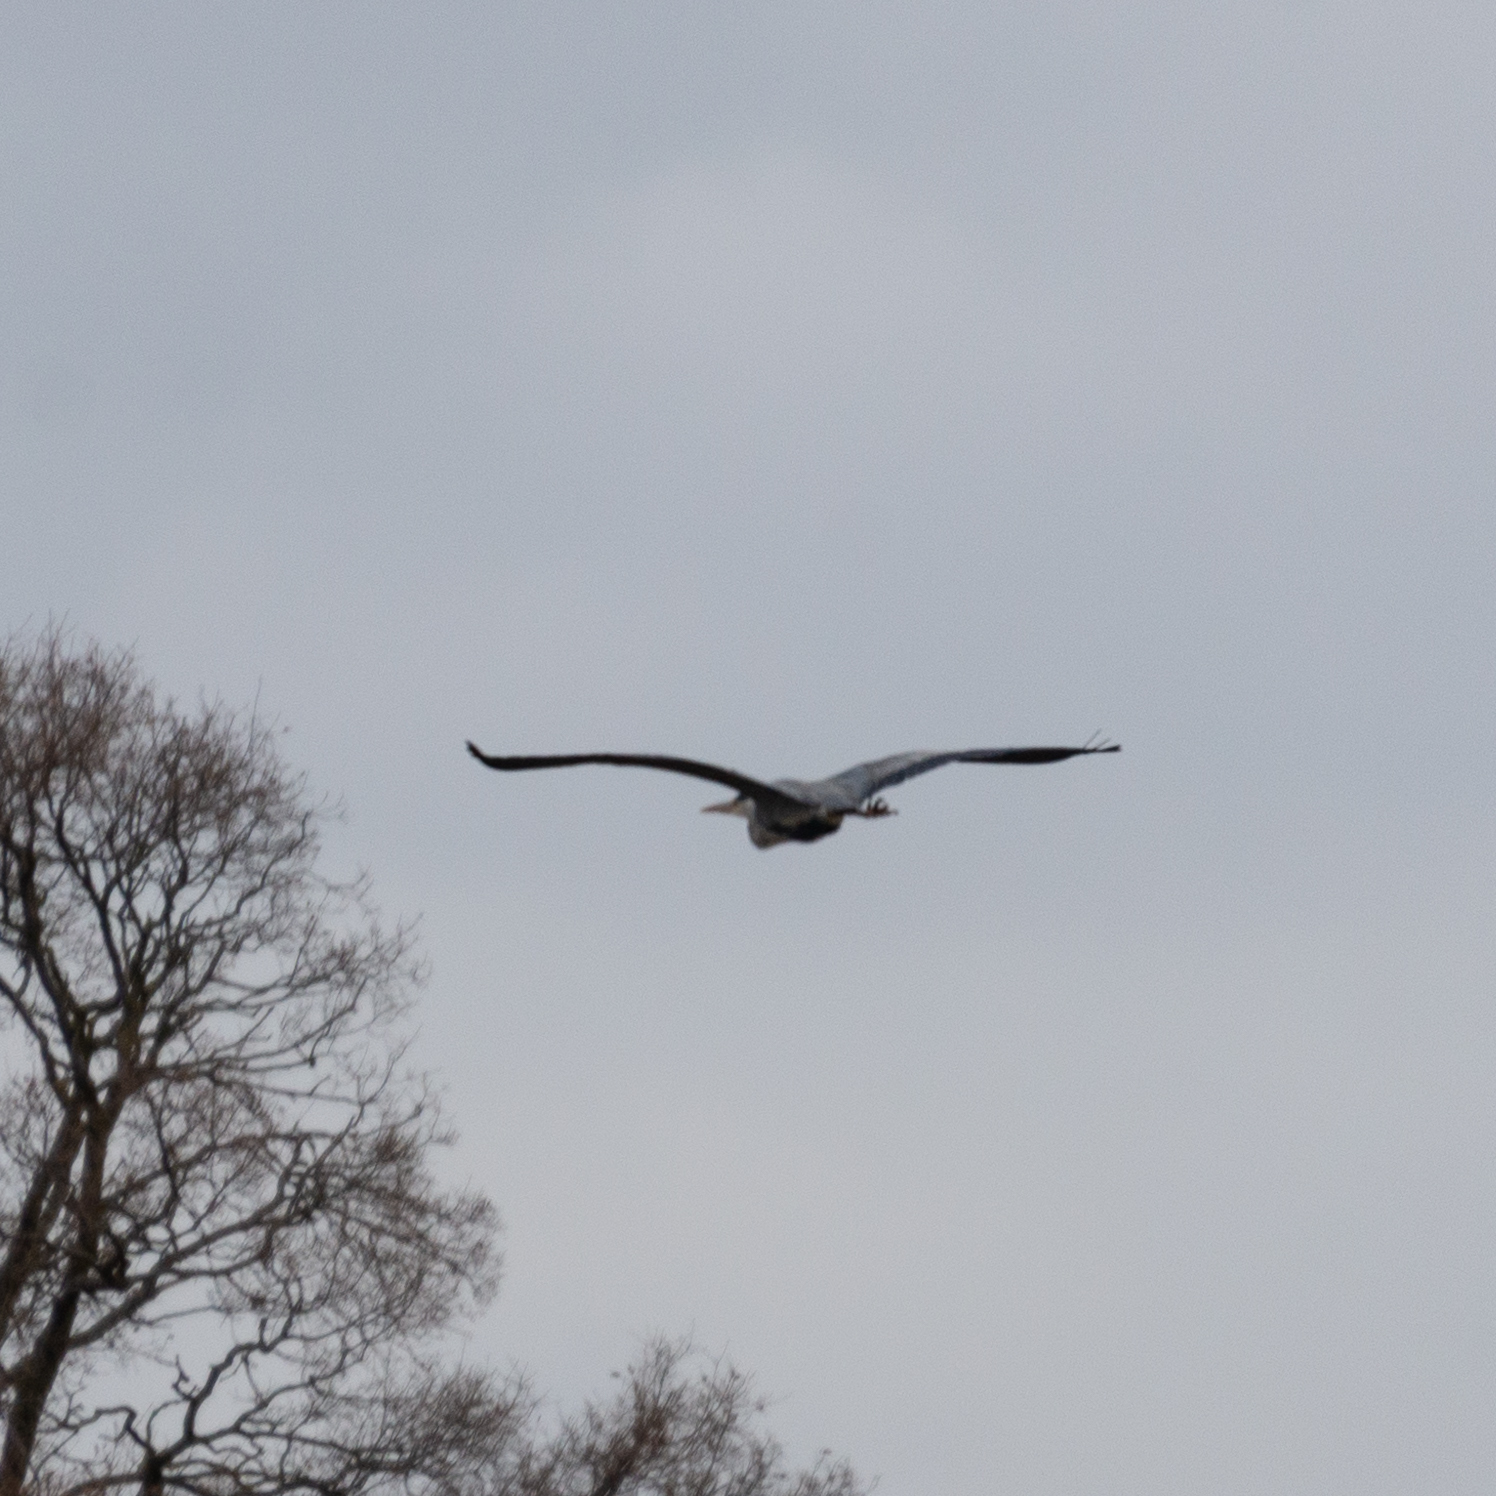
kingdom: Animalia
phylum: Chordata
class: Aves
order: Pelecaniformes
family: Ardeidae
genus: Ardea
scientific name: Ardea cinerea
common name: Grey heron
